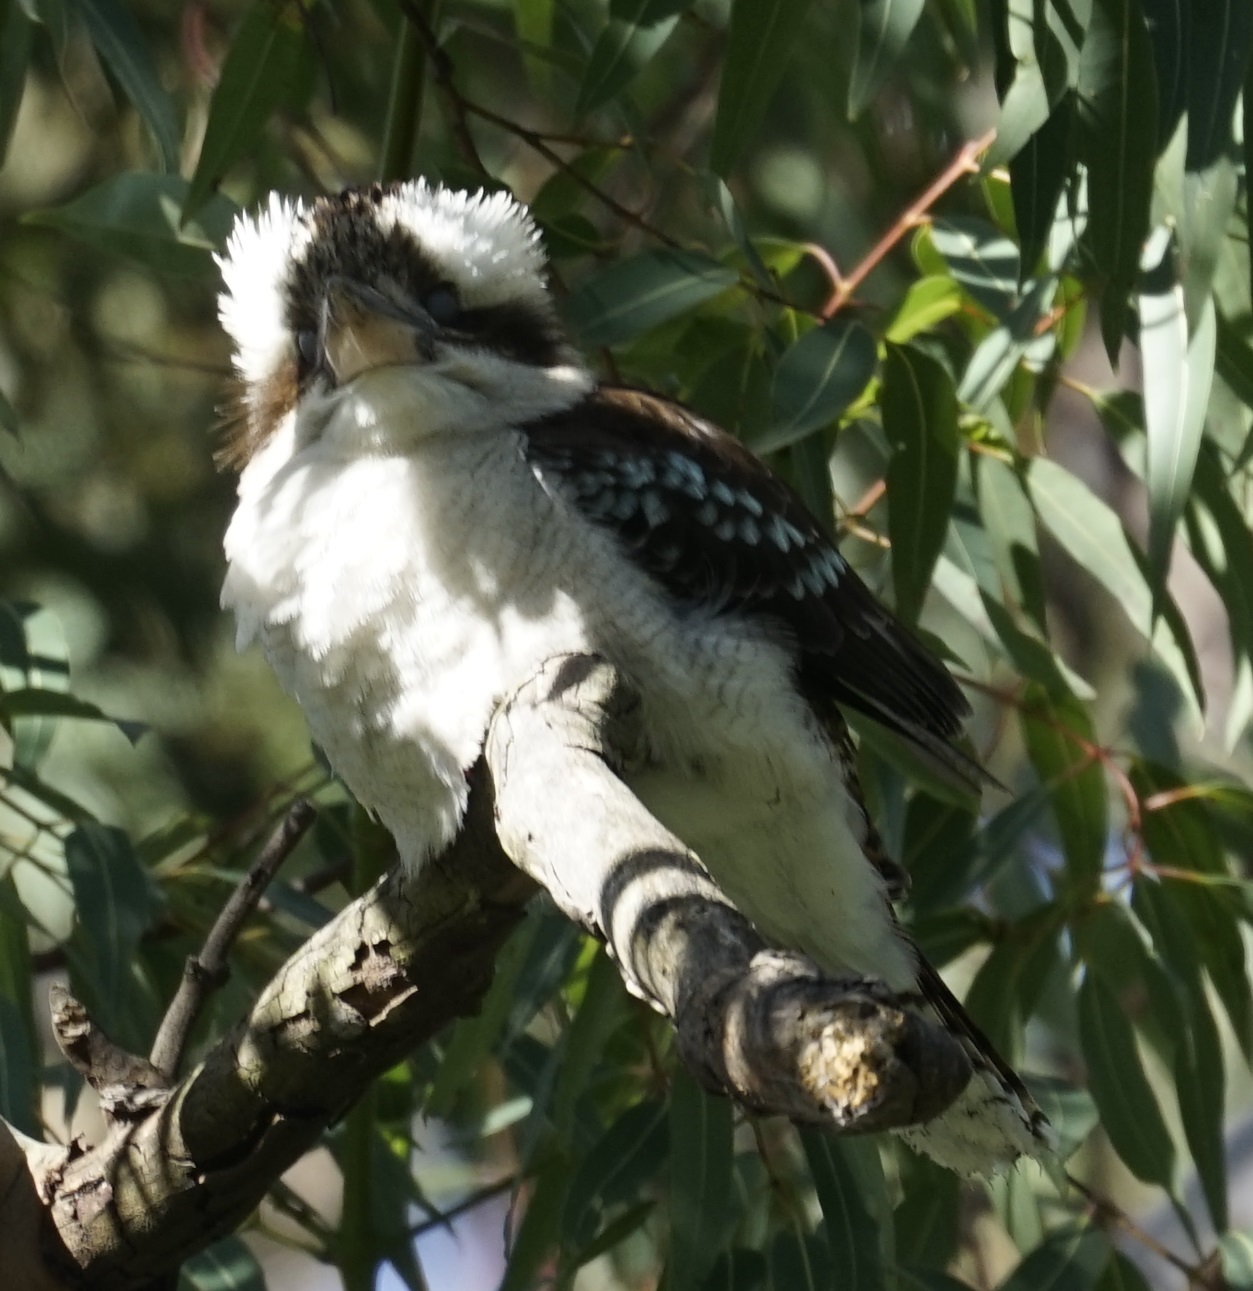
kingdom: Animalia
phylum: Chordata
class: Aves
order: Coraciiformes
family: Alcedinidae
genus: Dacelo
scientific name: Dacelo novaeguineae
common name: Laughing kookaburra
